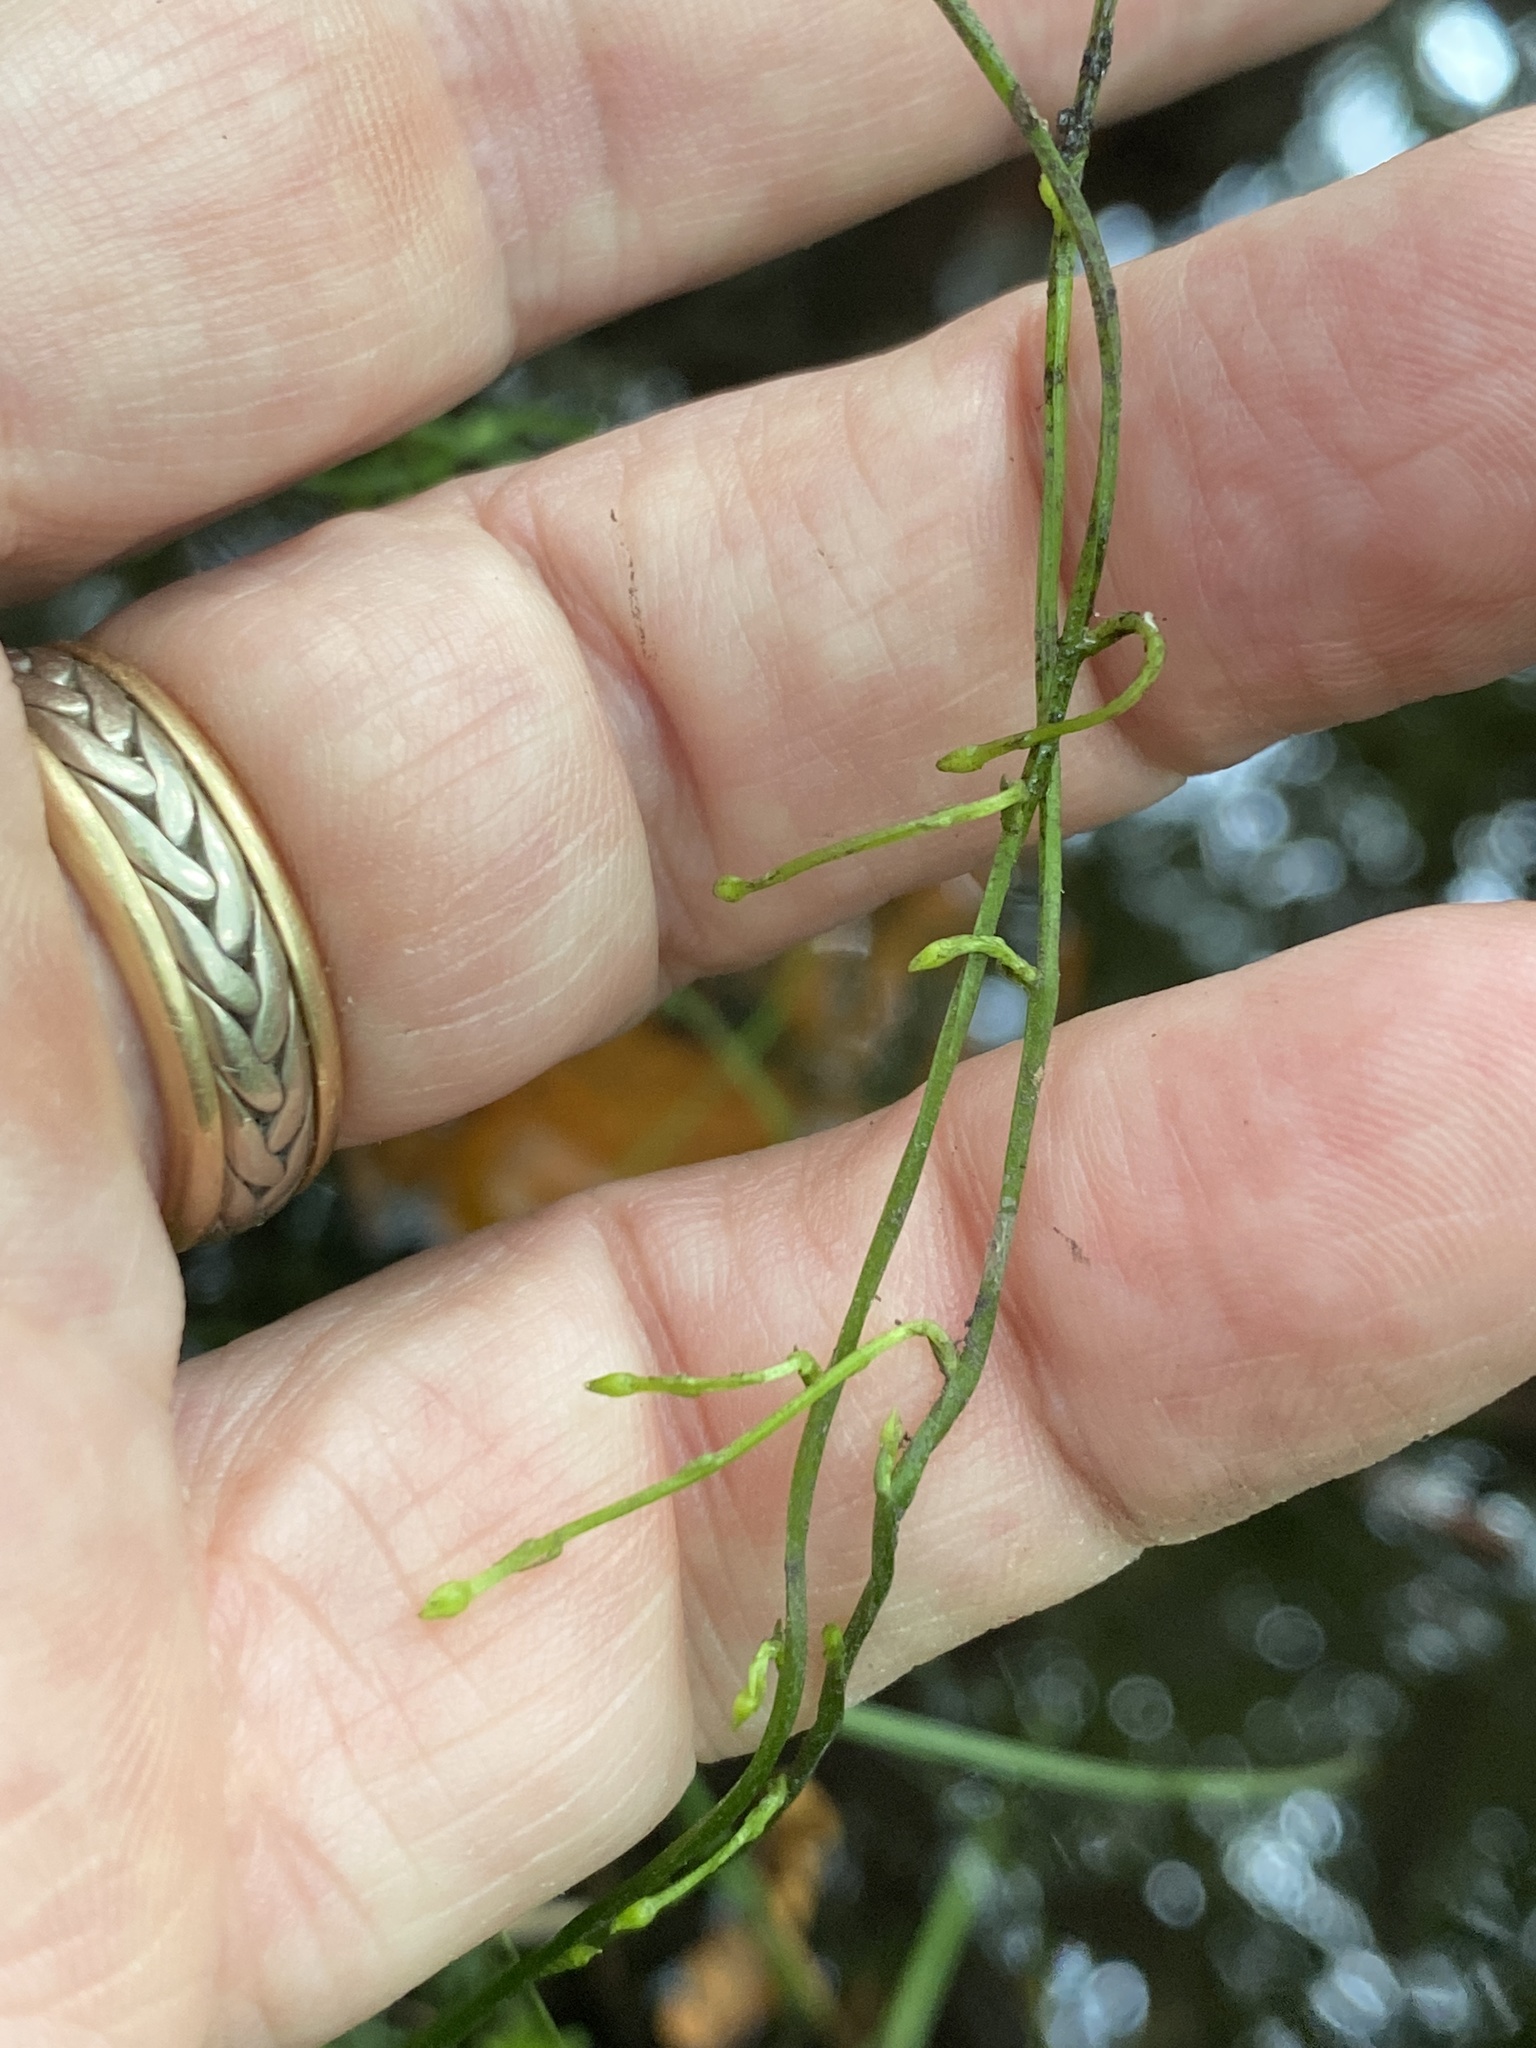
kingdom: Plantae
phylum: Tracheophyta
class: Magnoliopsida
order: Gentianales
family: Gentianaceae
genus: Bartonia
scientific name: Bartonia paniculata
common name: Branched bartonia
